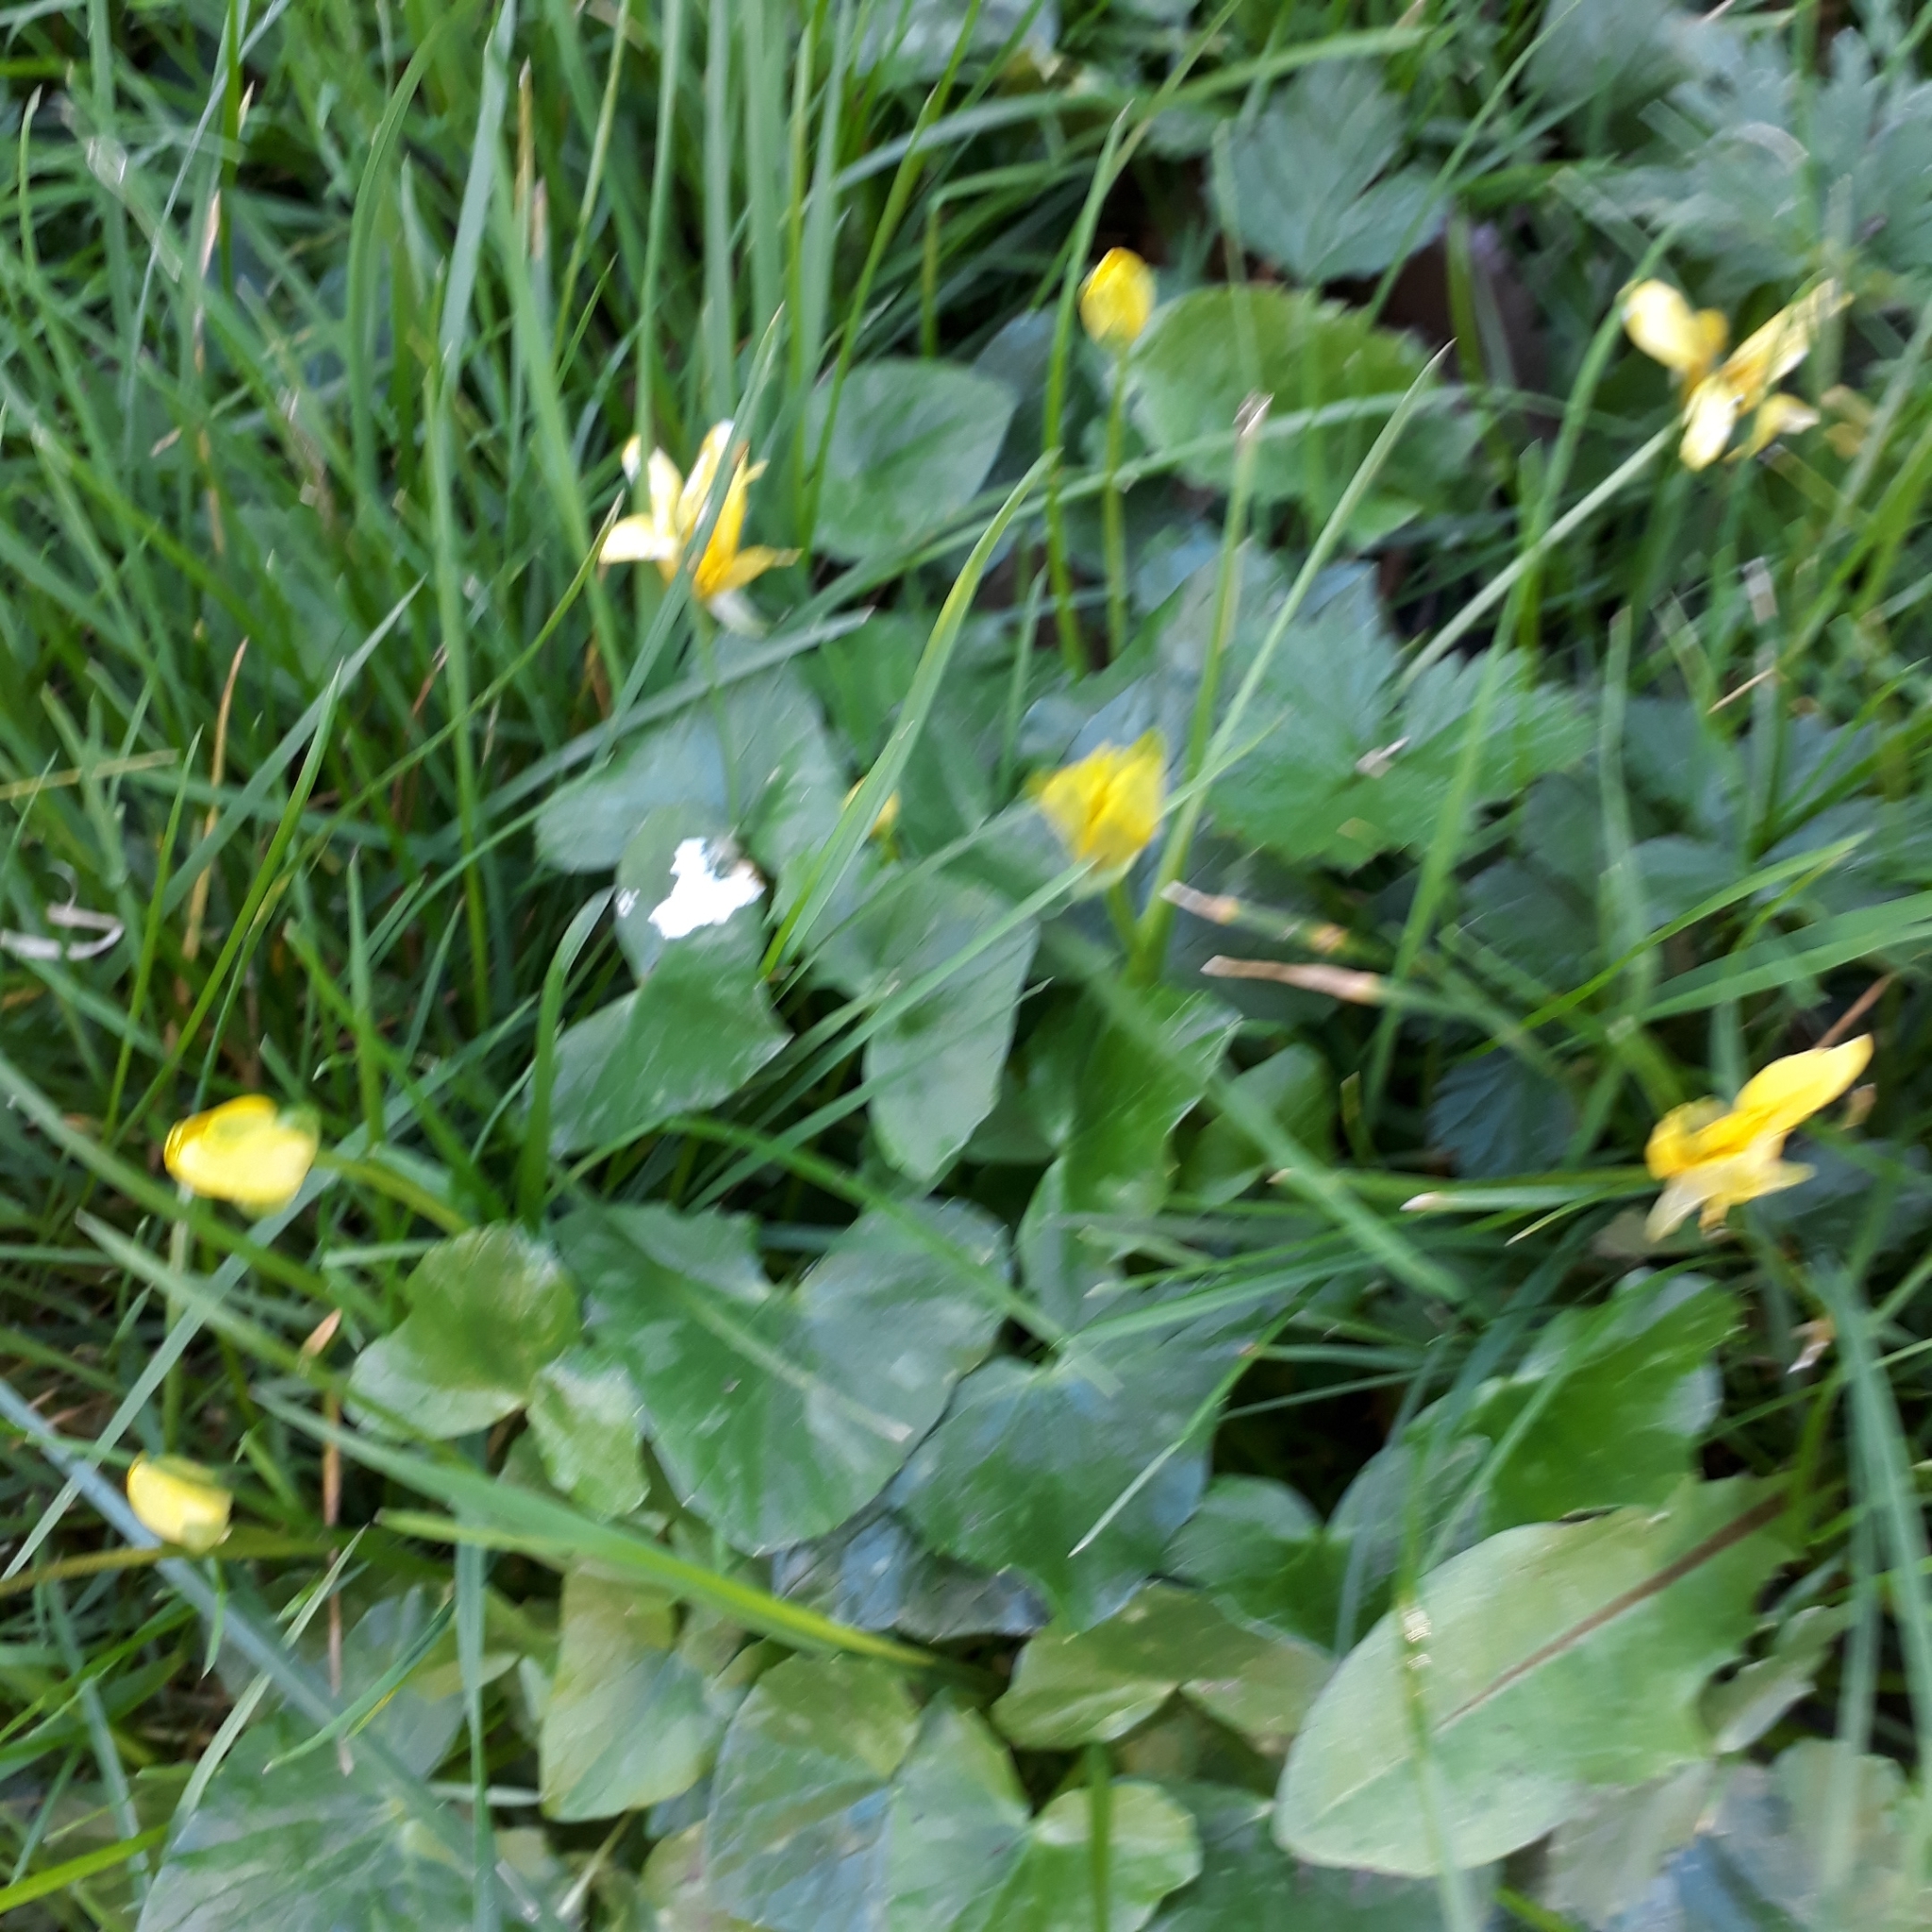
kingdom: Plantae
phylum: Tracheophyta
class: Magnoliopsida
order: Ranunculales
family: Ranunculaceae
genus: Ficaria
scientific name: Ficaria verna
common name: Lesser celandine
